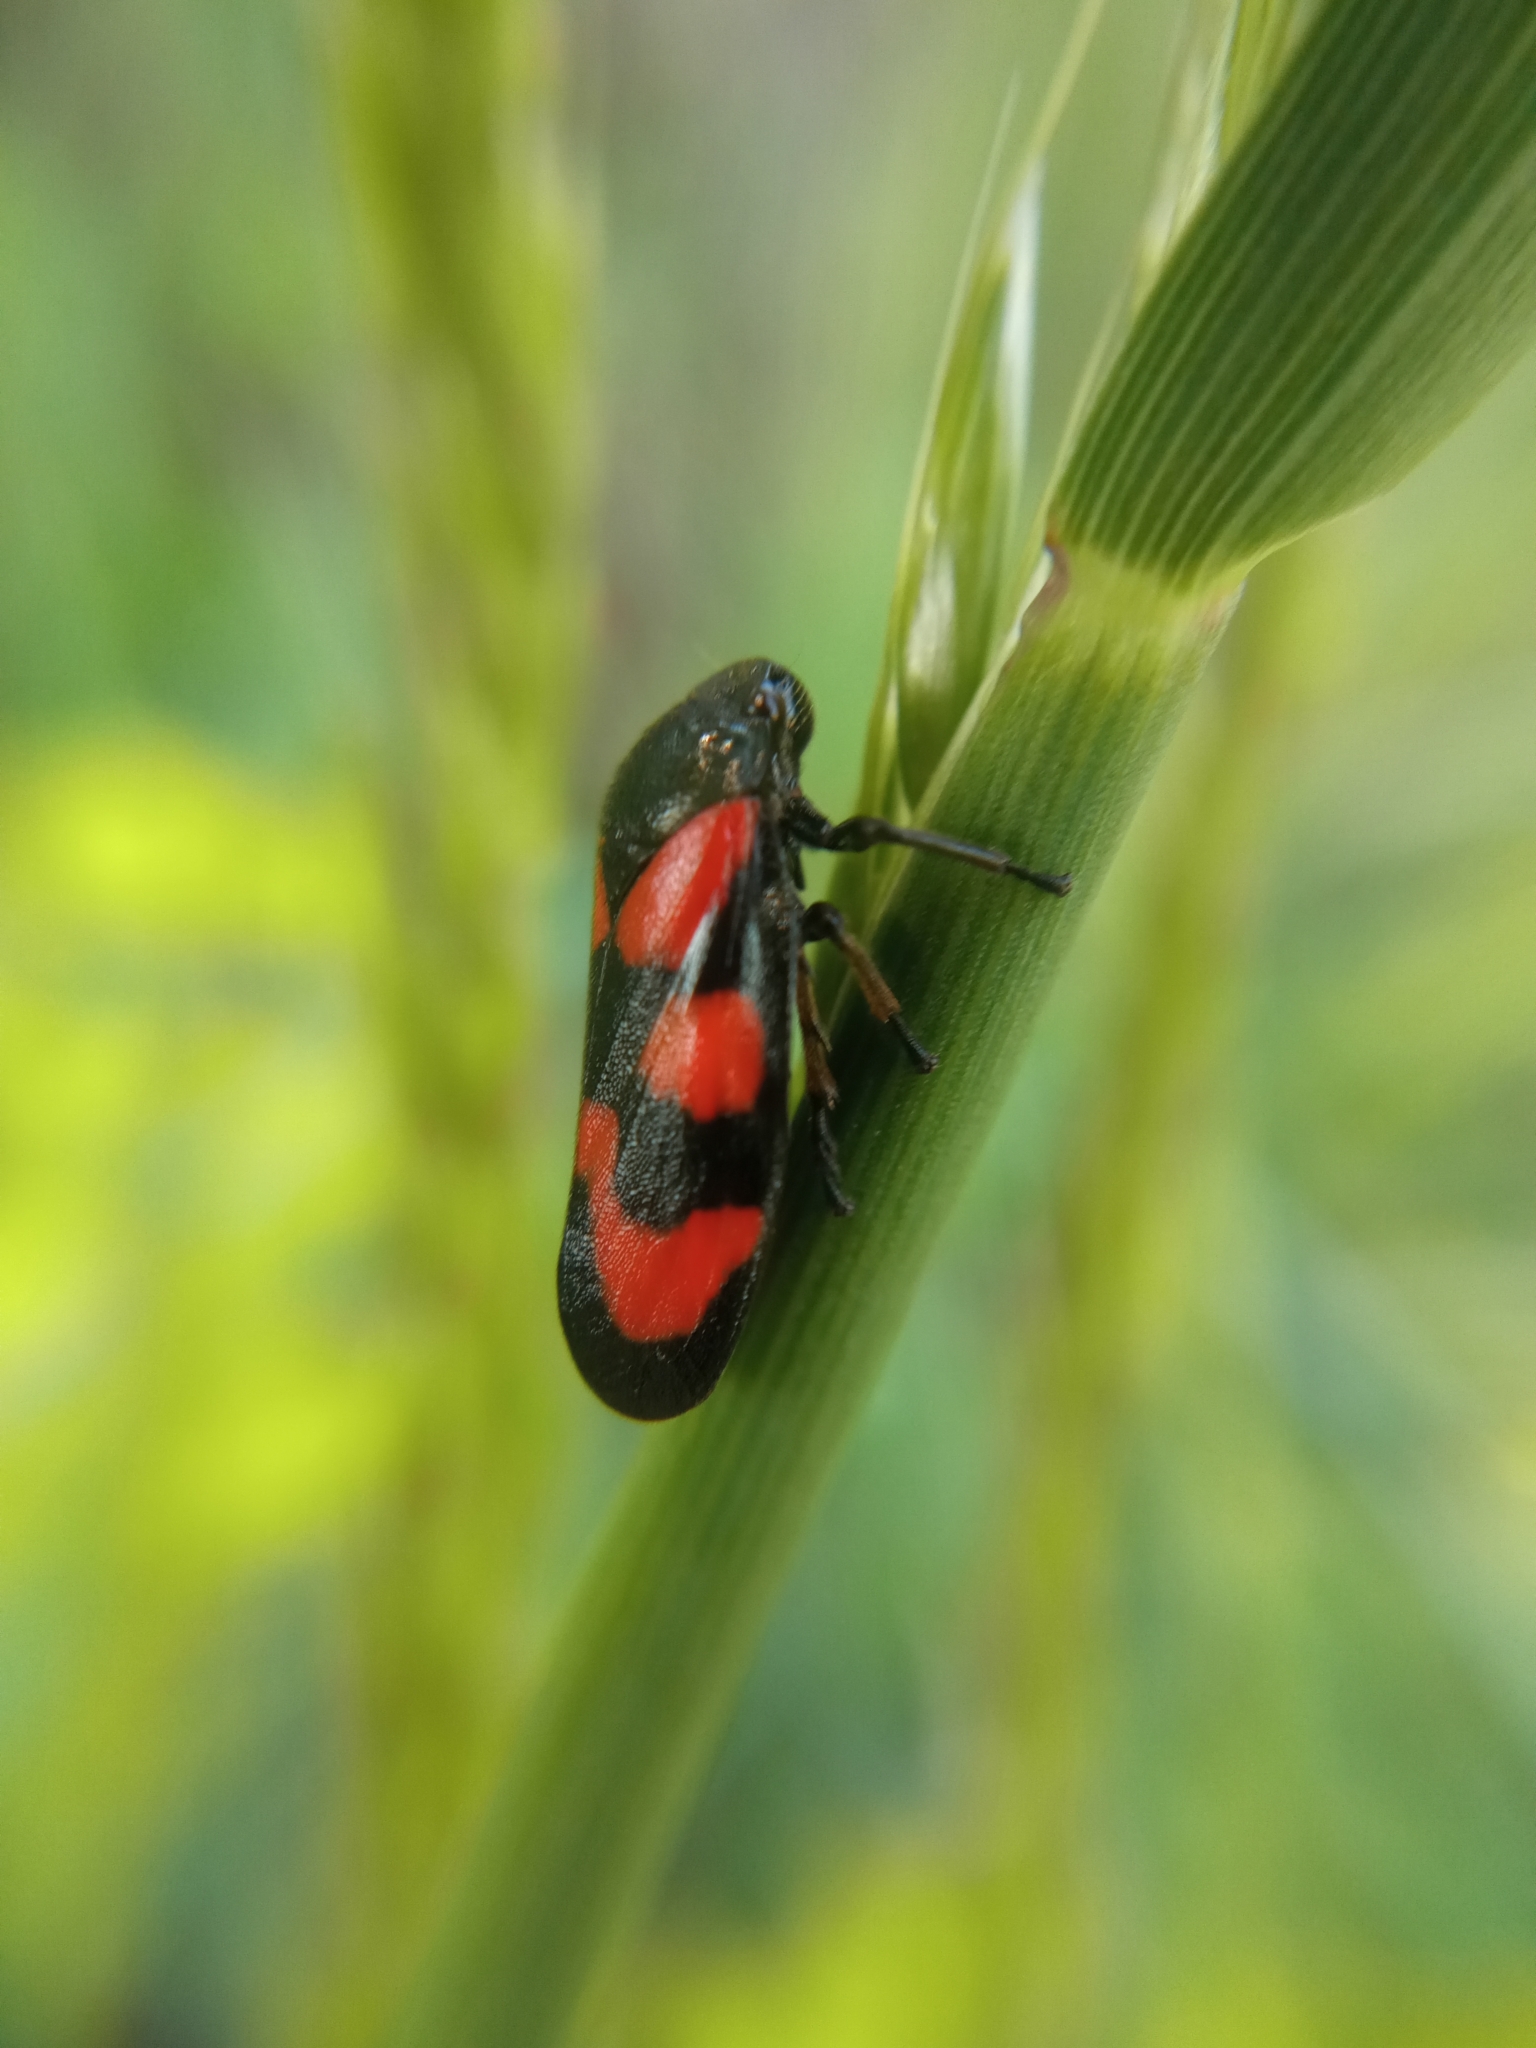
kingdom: Animalia
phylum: Arthropoda
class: Insecta
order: Hemiptera
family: Cercopidae
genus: Cercopis
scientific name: Cercopis vulnerata
